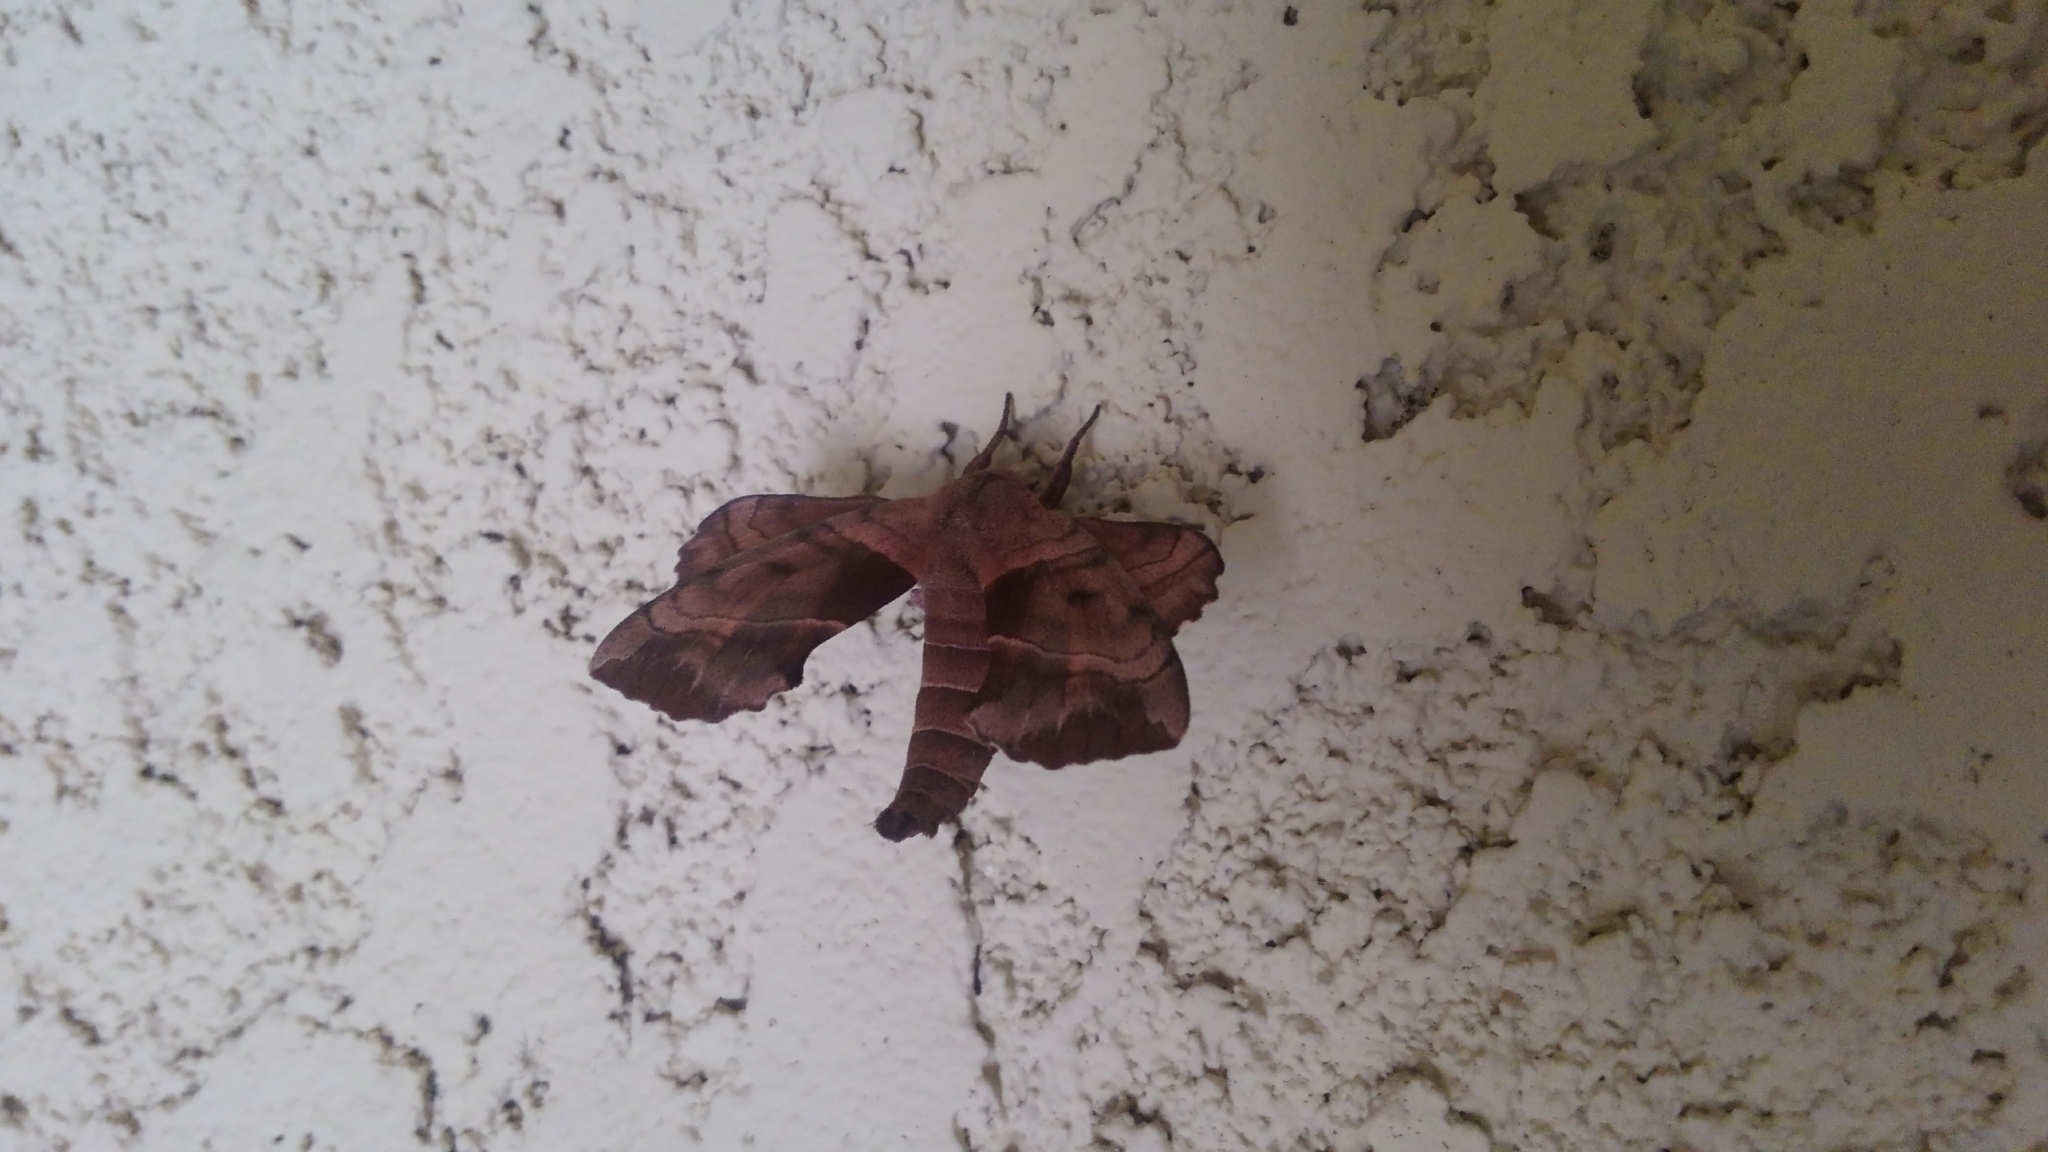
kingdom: Animalia
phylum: Arthropoda
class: Insecta
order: Lepidoptera
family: Sphingidae
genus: Amorpha
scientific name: Amorpha juglandis
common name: Walnut sphinx
